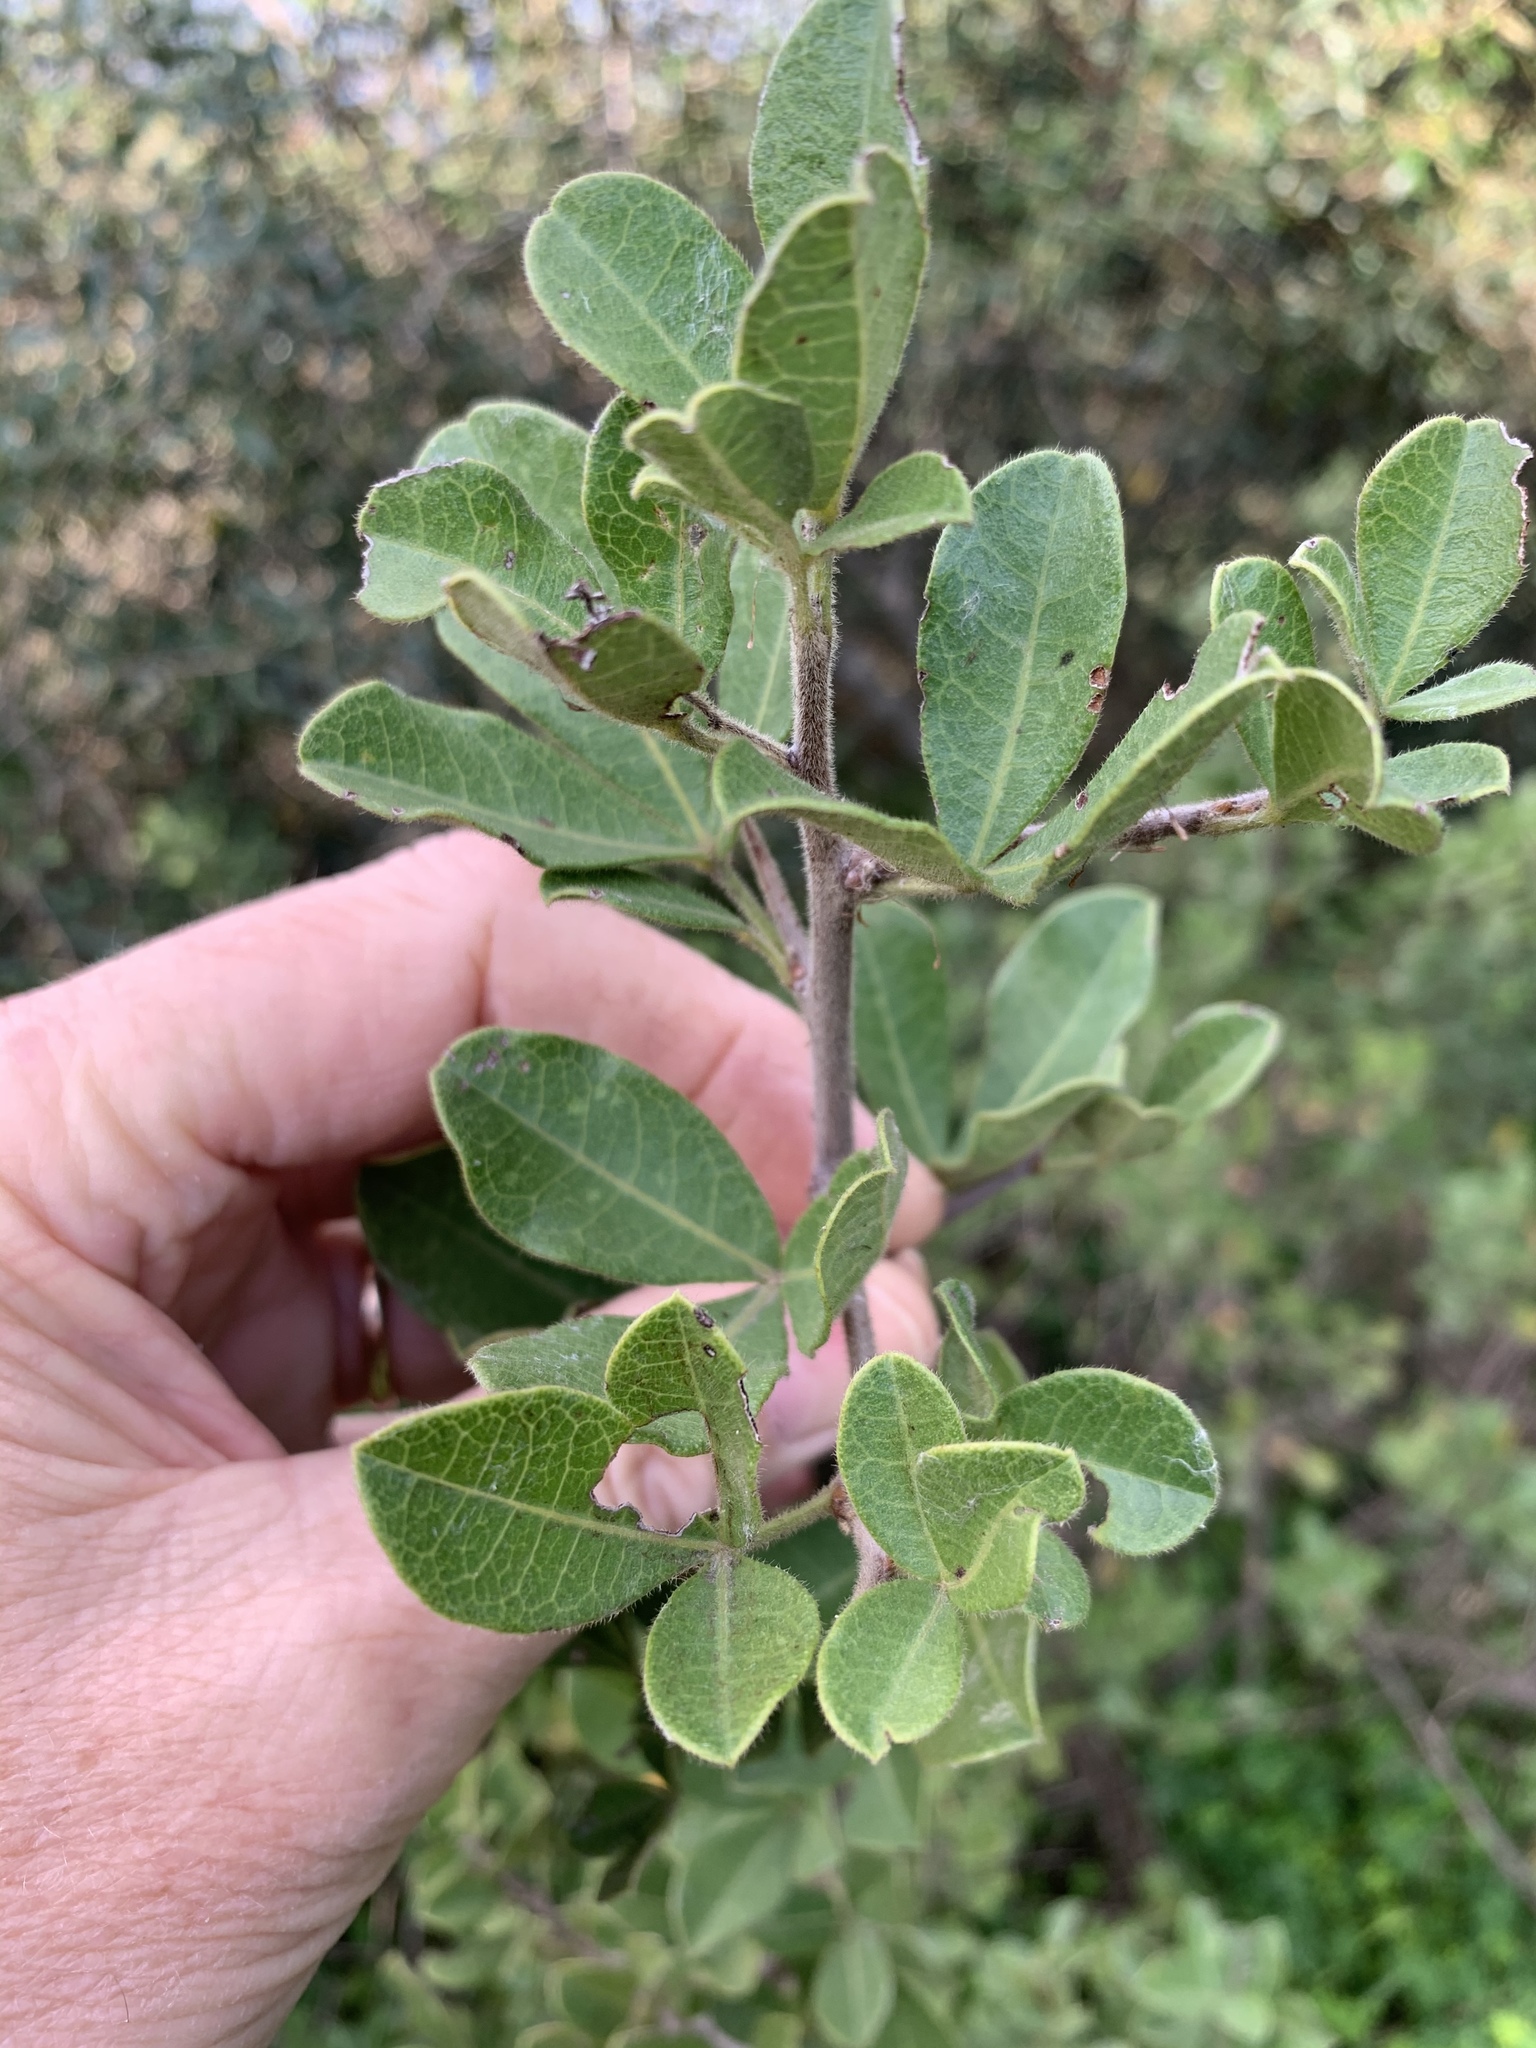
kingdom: Plantae
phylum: Tracheophyta
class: Magnoliopsida
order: Sapindales
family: Anacardiaceae
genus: Searsia
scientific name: Searsia laevigata
